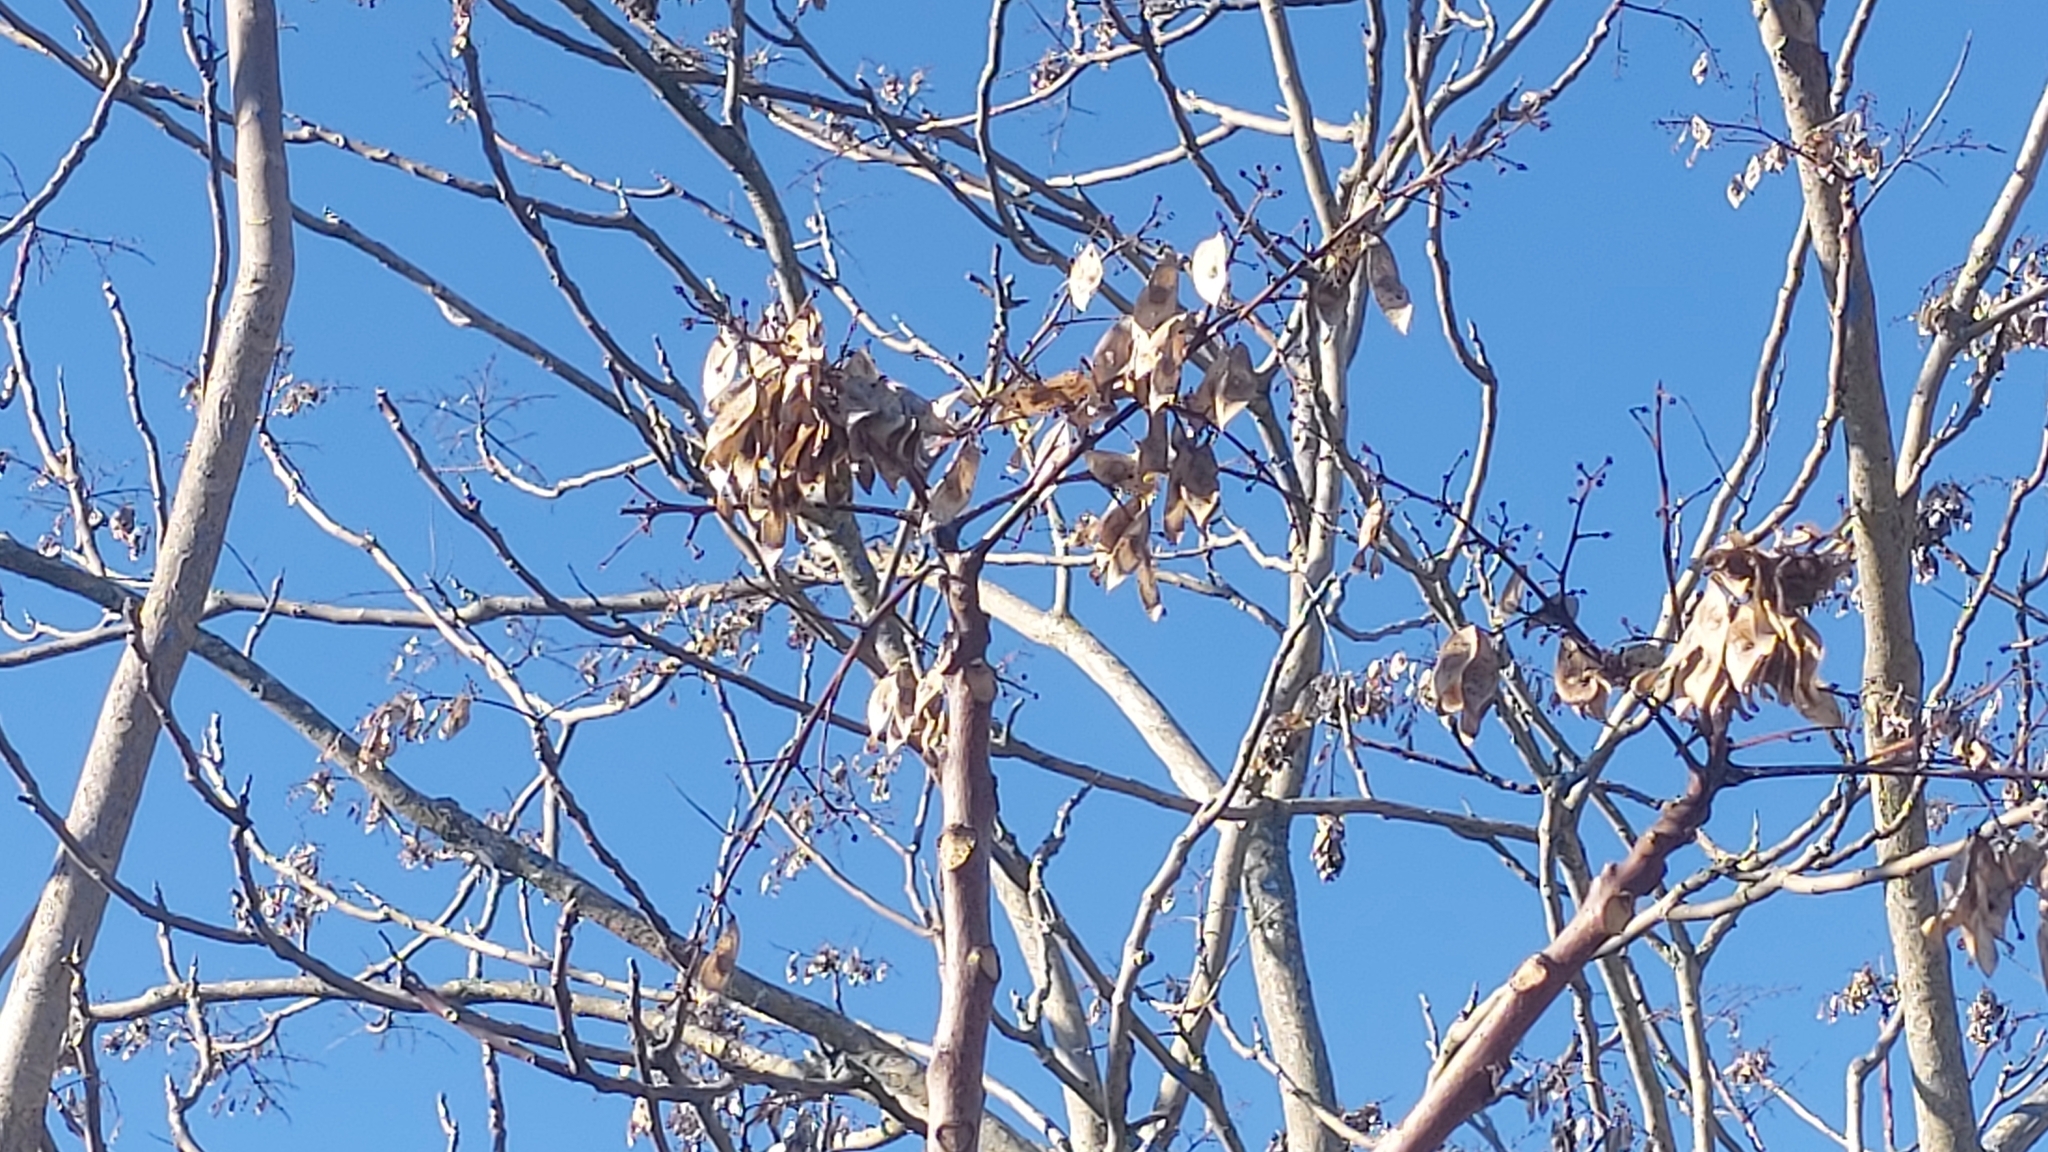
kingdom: Plantae
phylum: Tracheophyta
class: Magnoliopsida
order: Sapindales
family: Simaroubaceae
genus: Ailanthus
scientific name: Ailanthus altissima
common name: Tree-of-heaven
